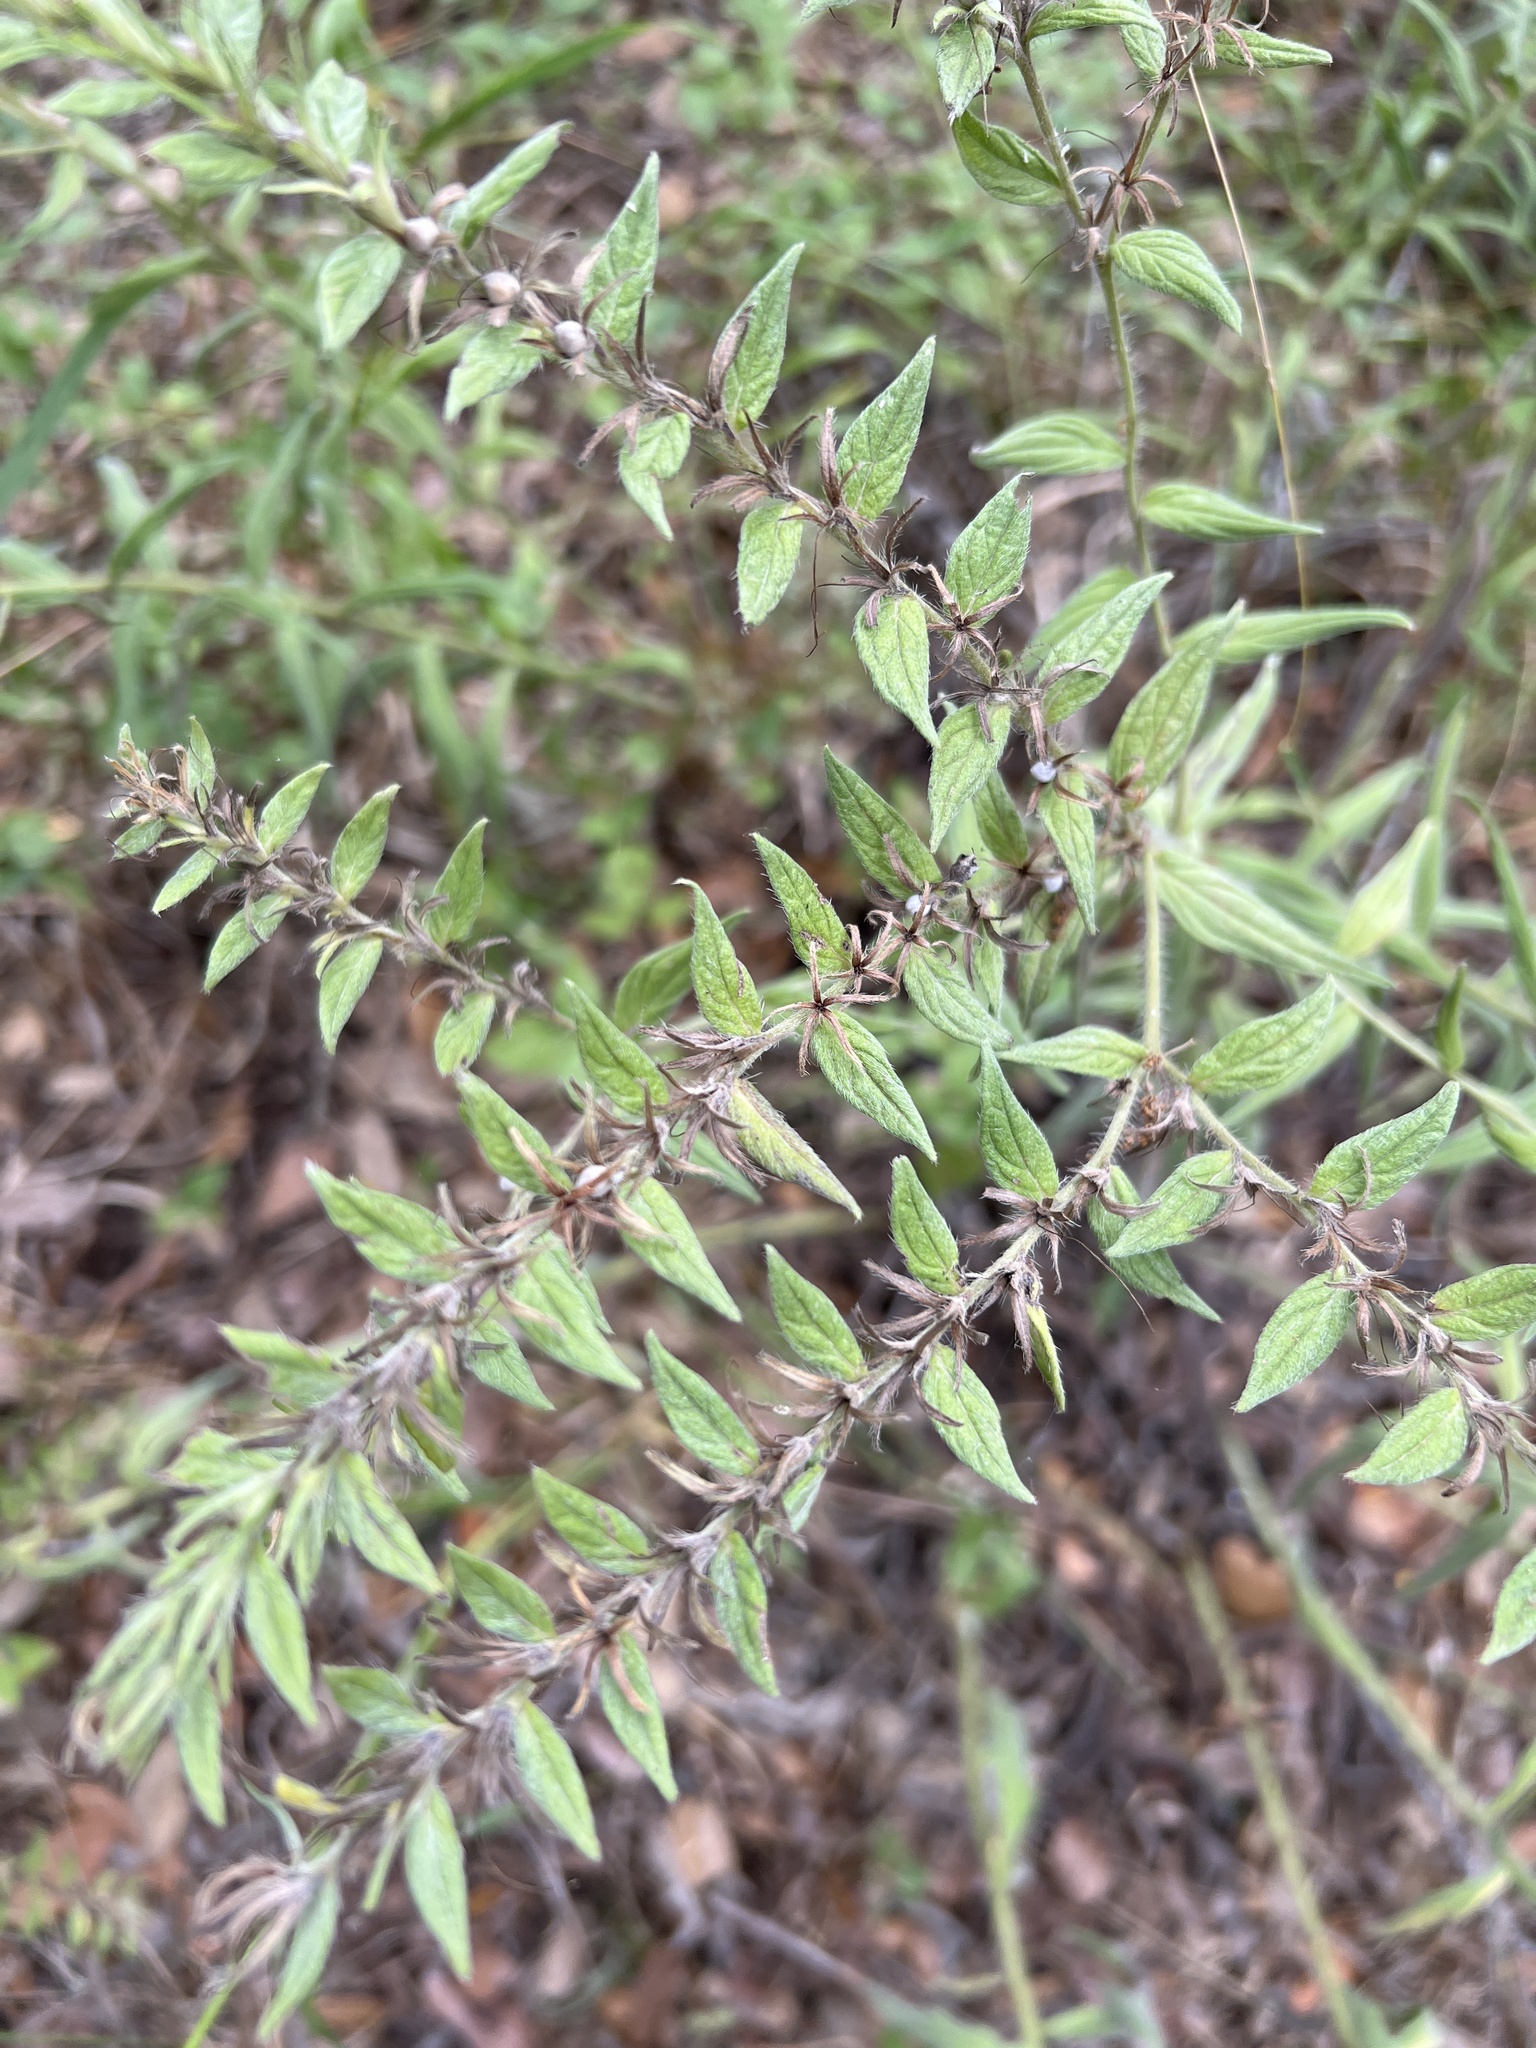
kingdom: Plantae
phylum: Tracheophyta
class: Magnoliopsida
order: Boraginales
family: Boraginaceae
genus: Lithospermum
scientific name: Lithospermum caroliniense
